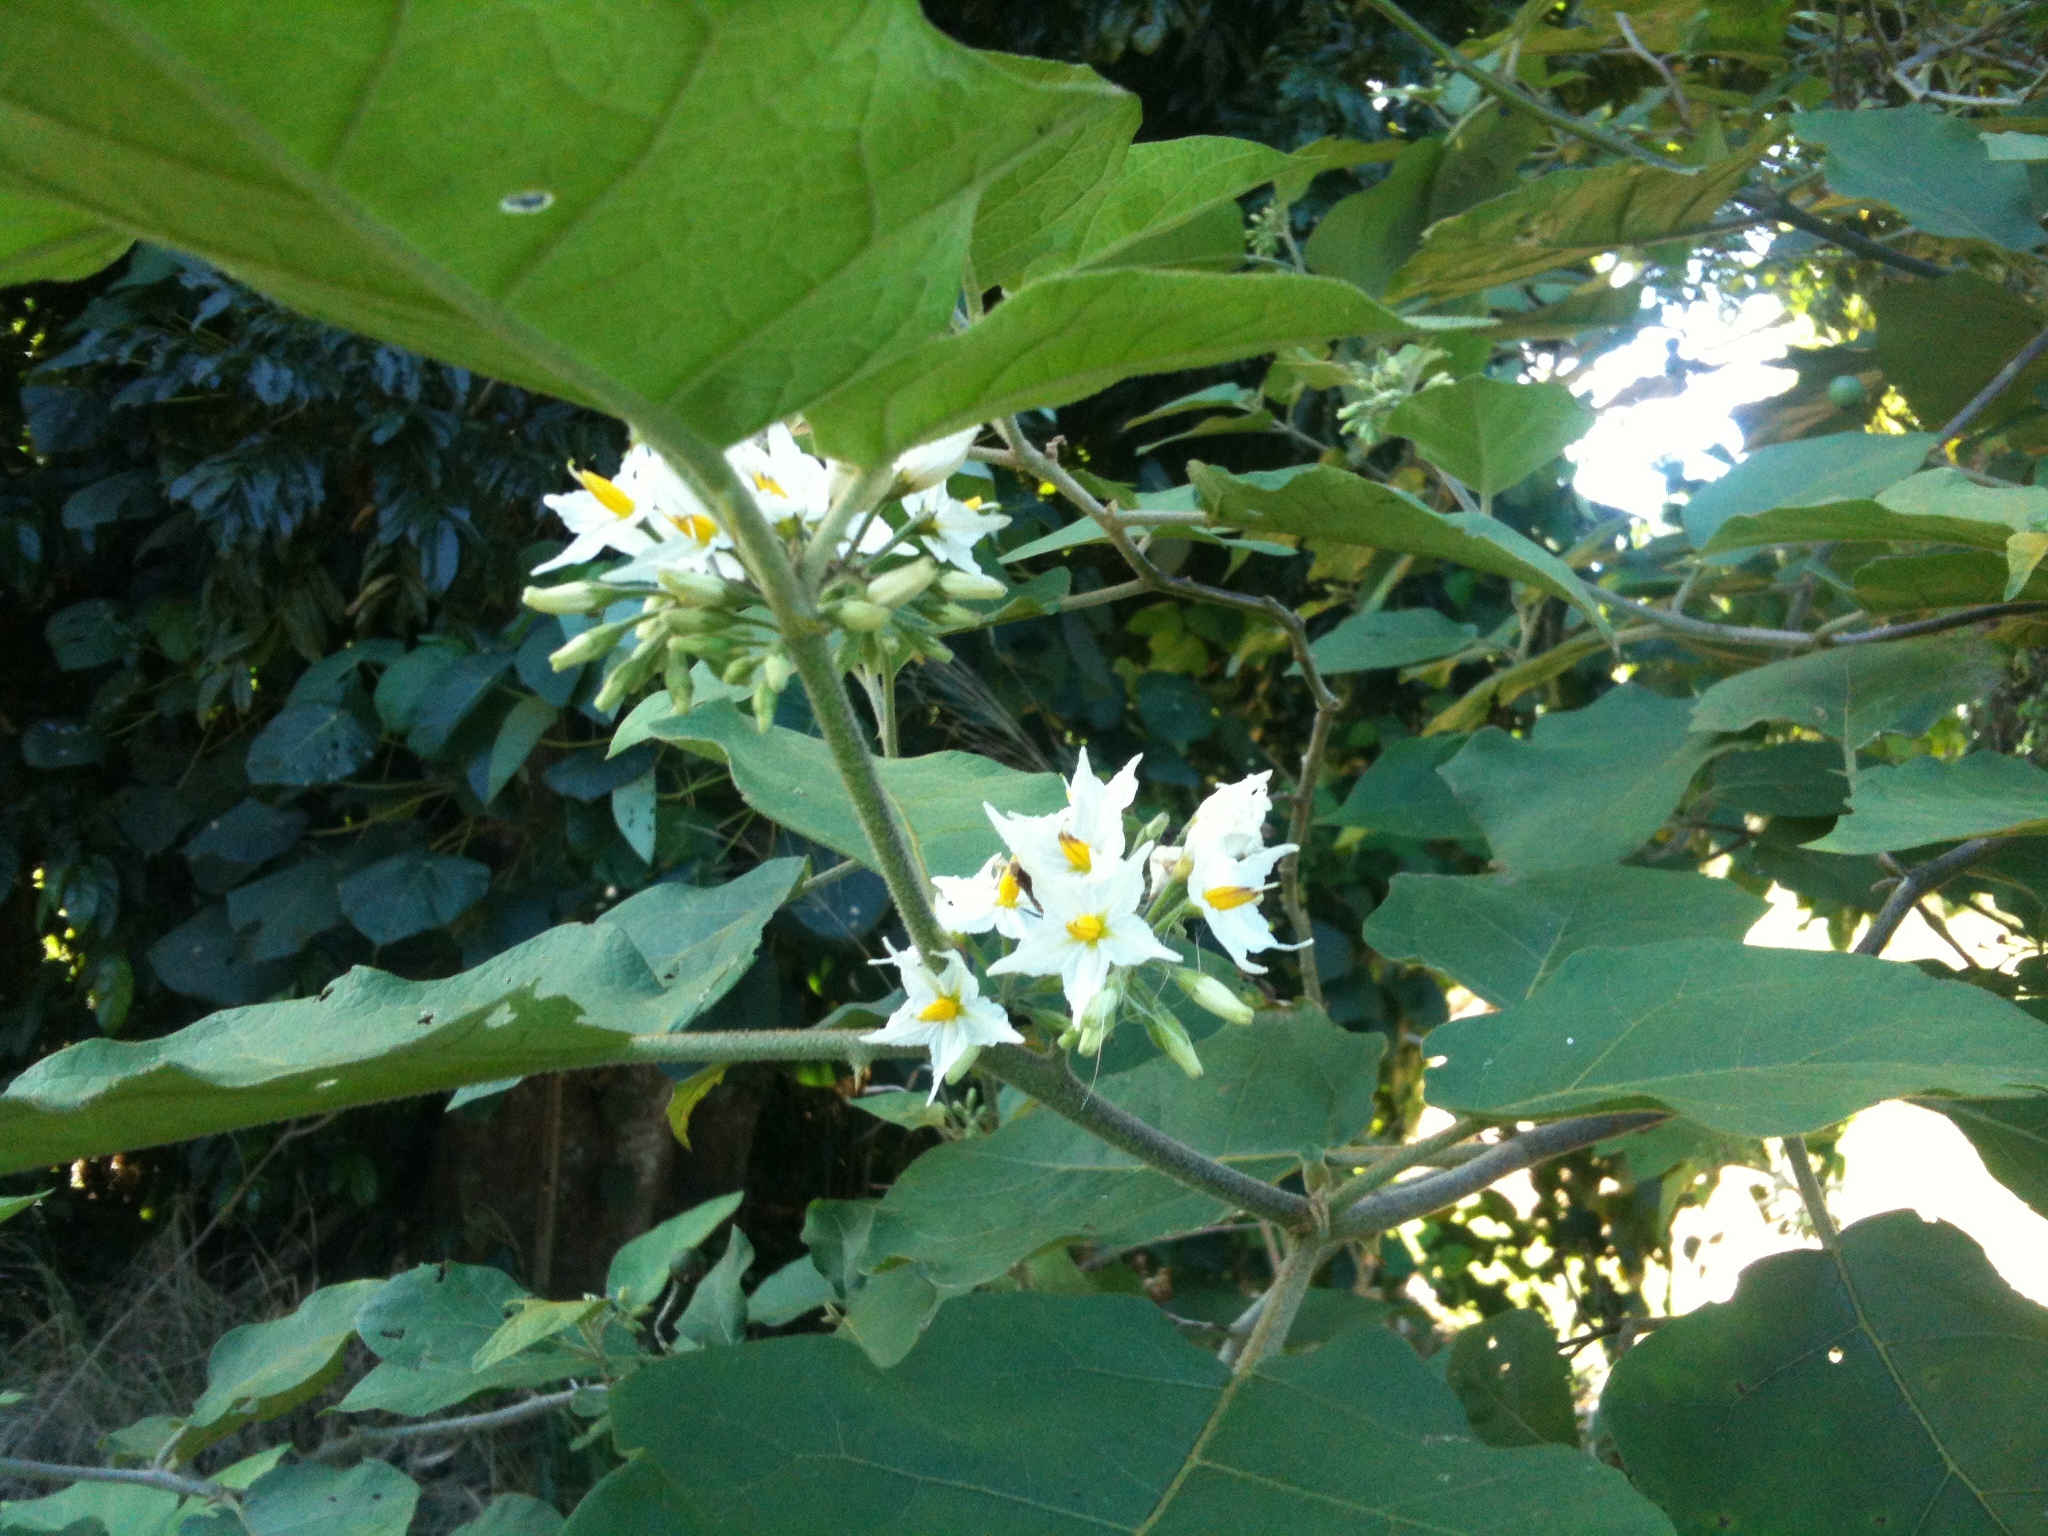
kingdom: Plantae
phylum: Tracheophyta
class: Magnoliopsida
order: Solanales
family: Solanaceae
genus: Solanum
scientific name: Solanum torvum
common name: Turkey berry
